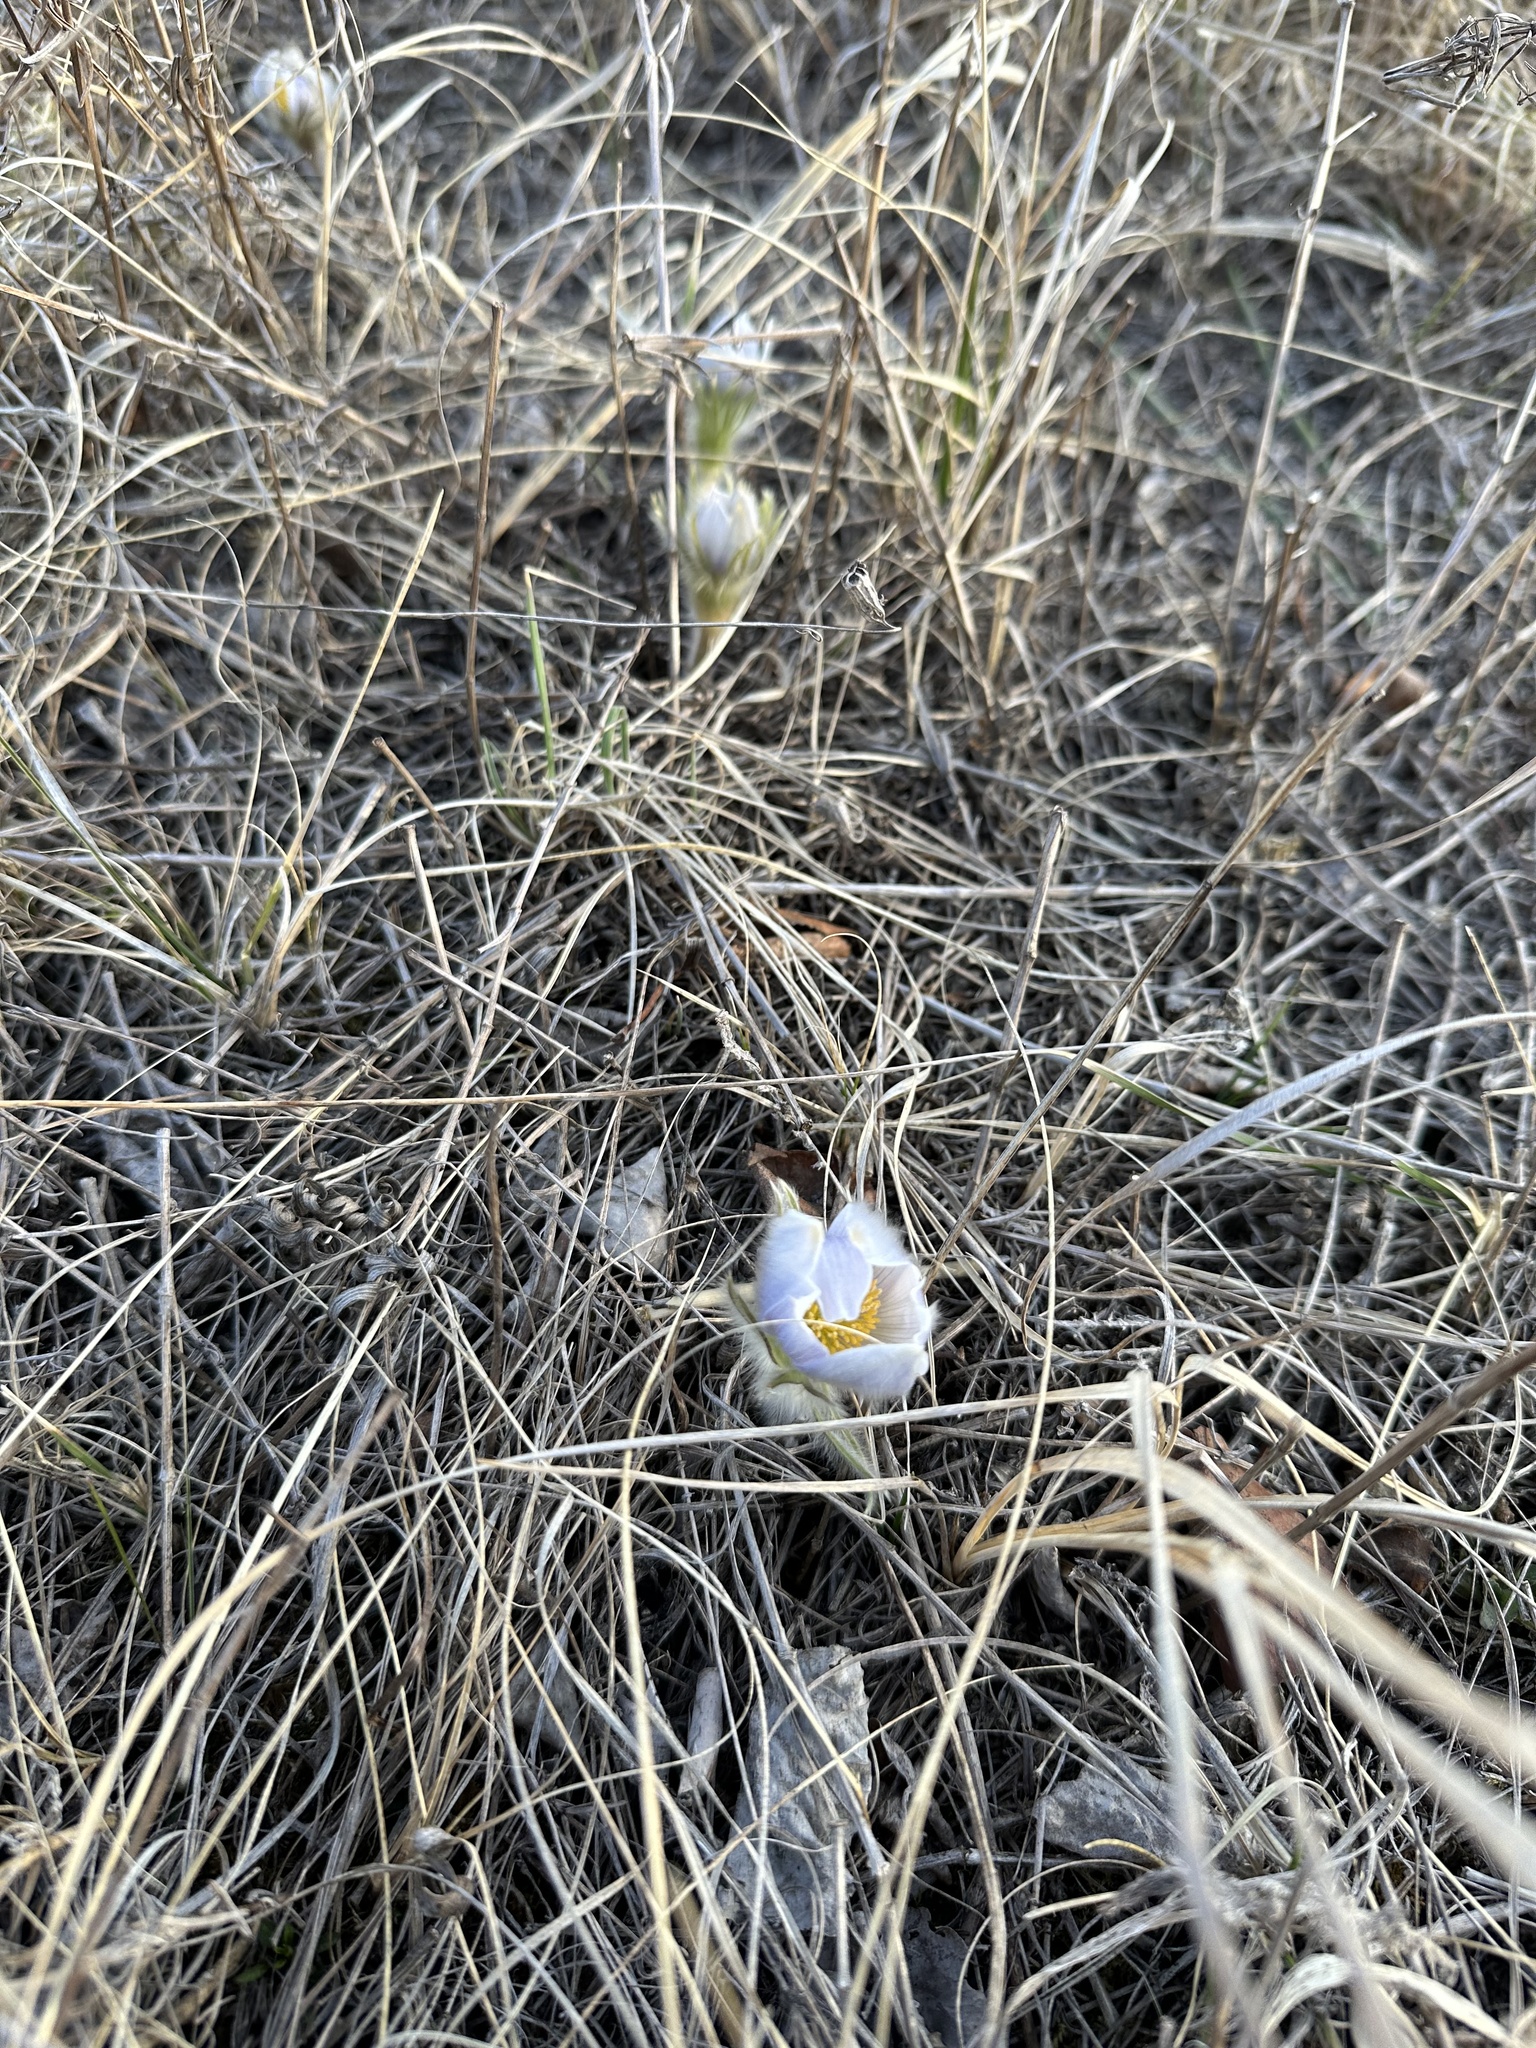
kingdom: Plantae
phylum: Tracheophyta
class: Magnoliopsida
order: Ranunculales
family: Ranunculaceae
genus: Pulsatilla
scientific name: Pulsatilla nuttalliana
